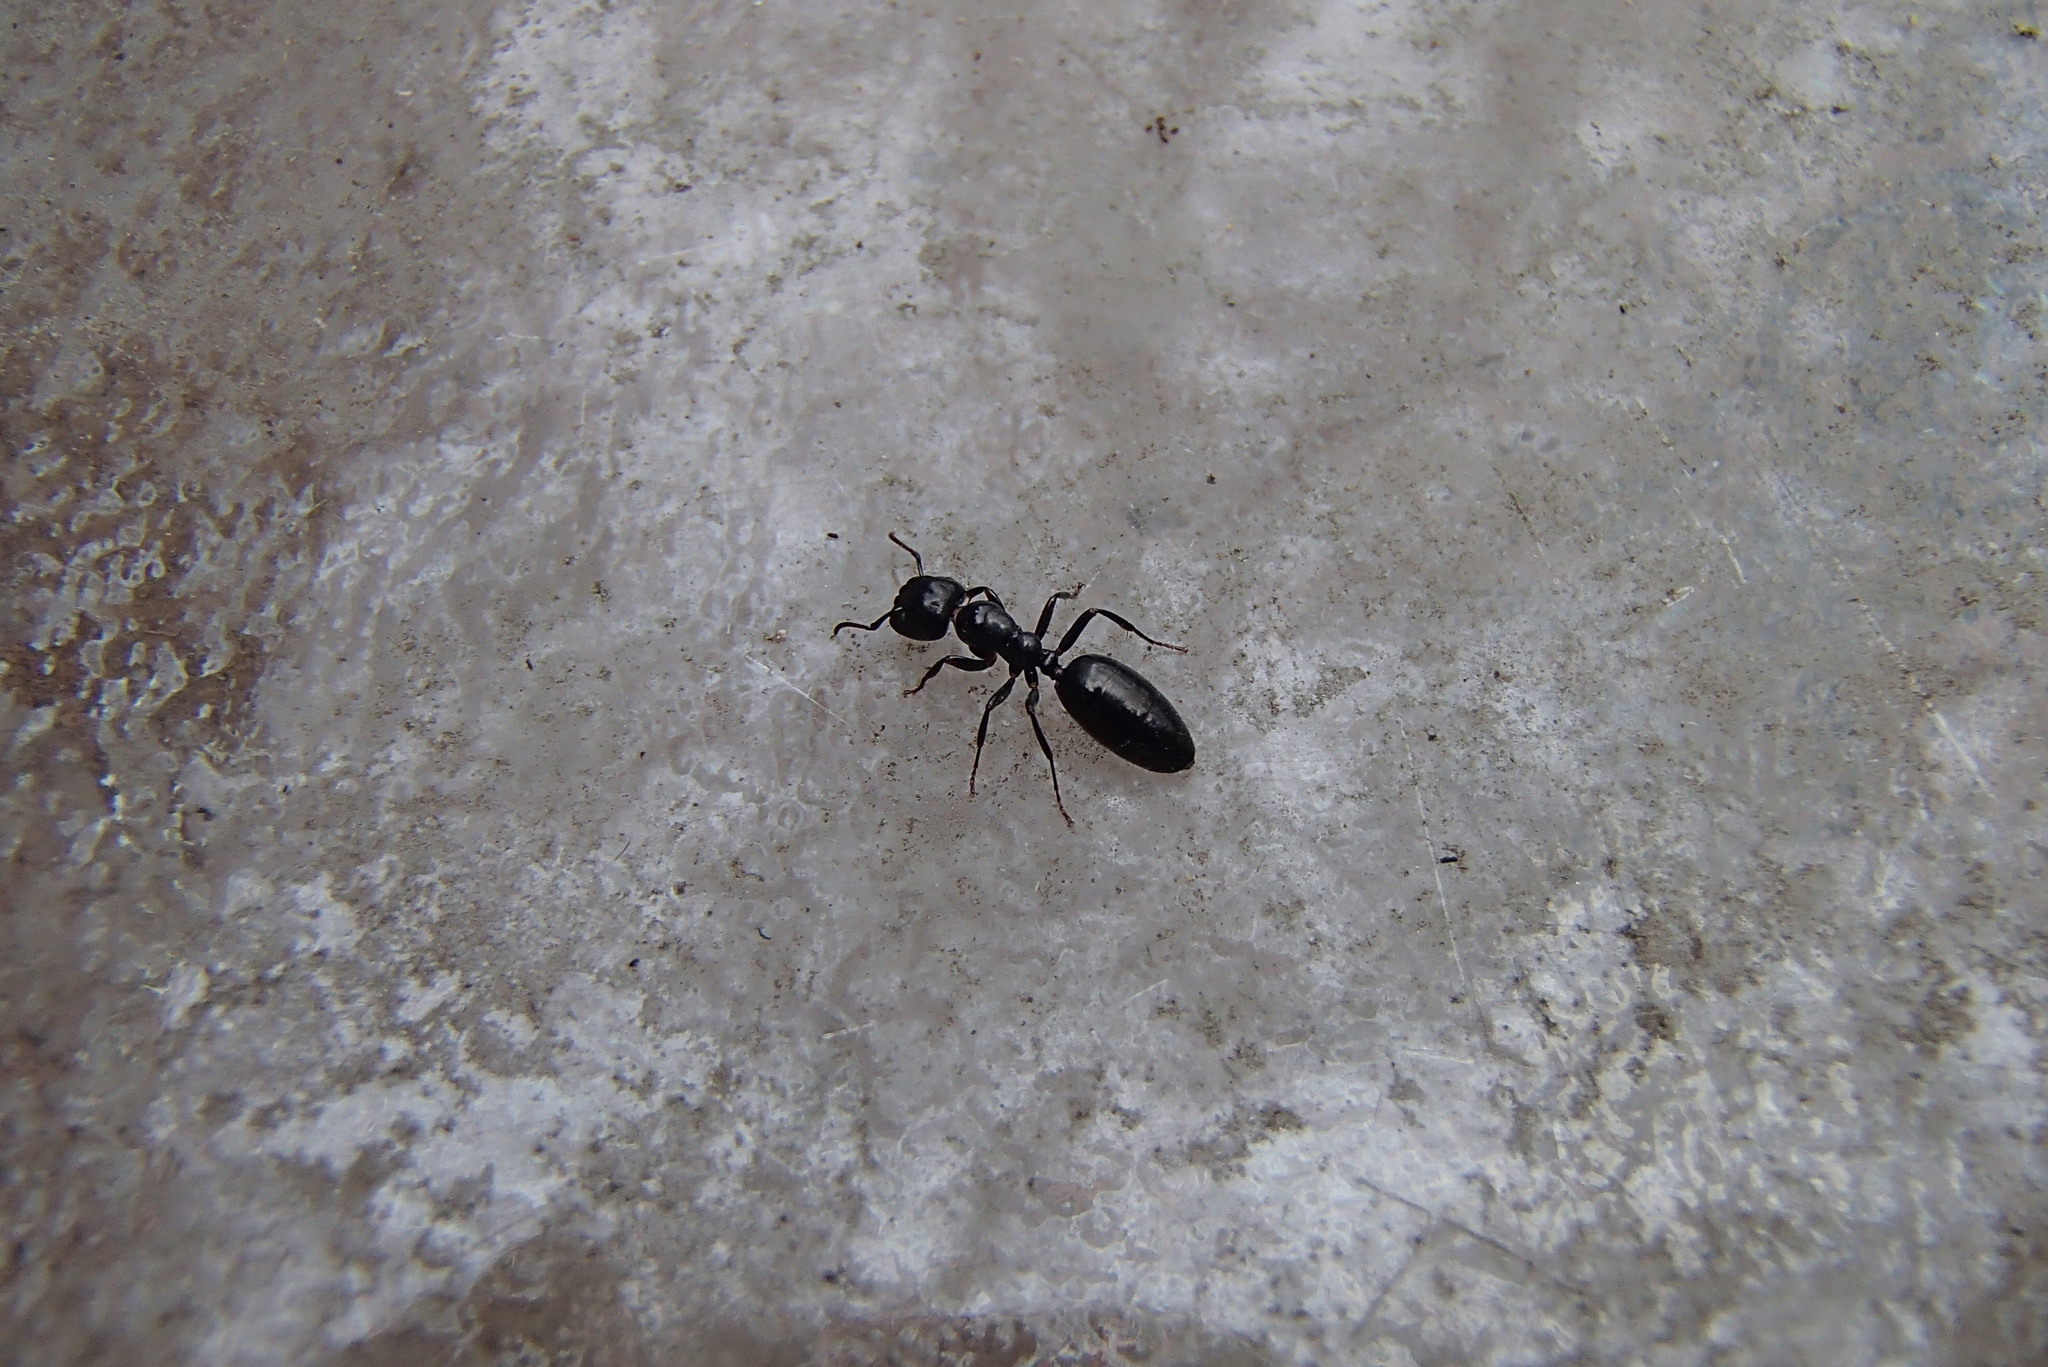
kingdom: Animalia
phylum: Arthropoda
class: Insecta
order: Hymenoptera
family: Formicidae
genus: Colobopsis
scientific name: Colobopsis gasseri
